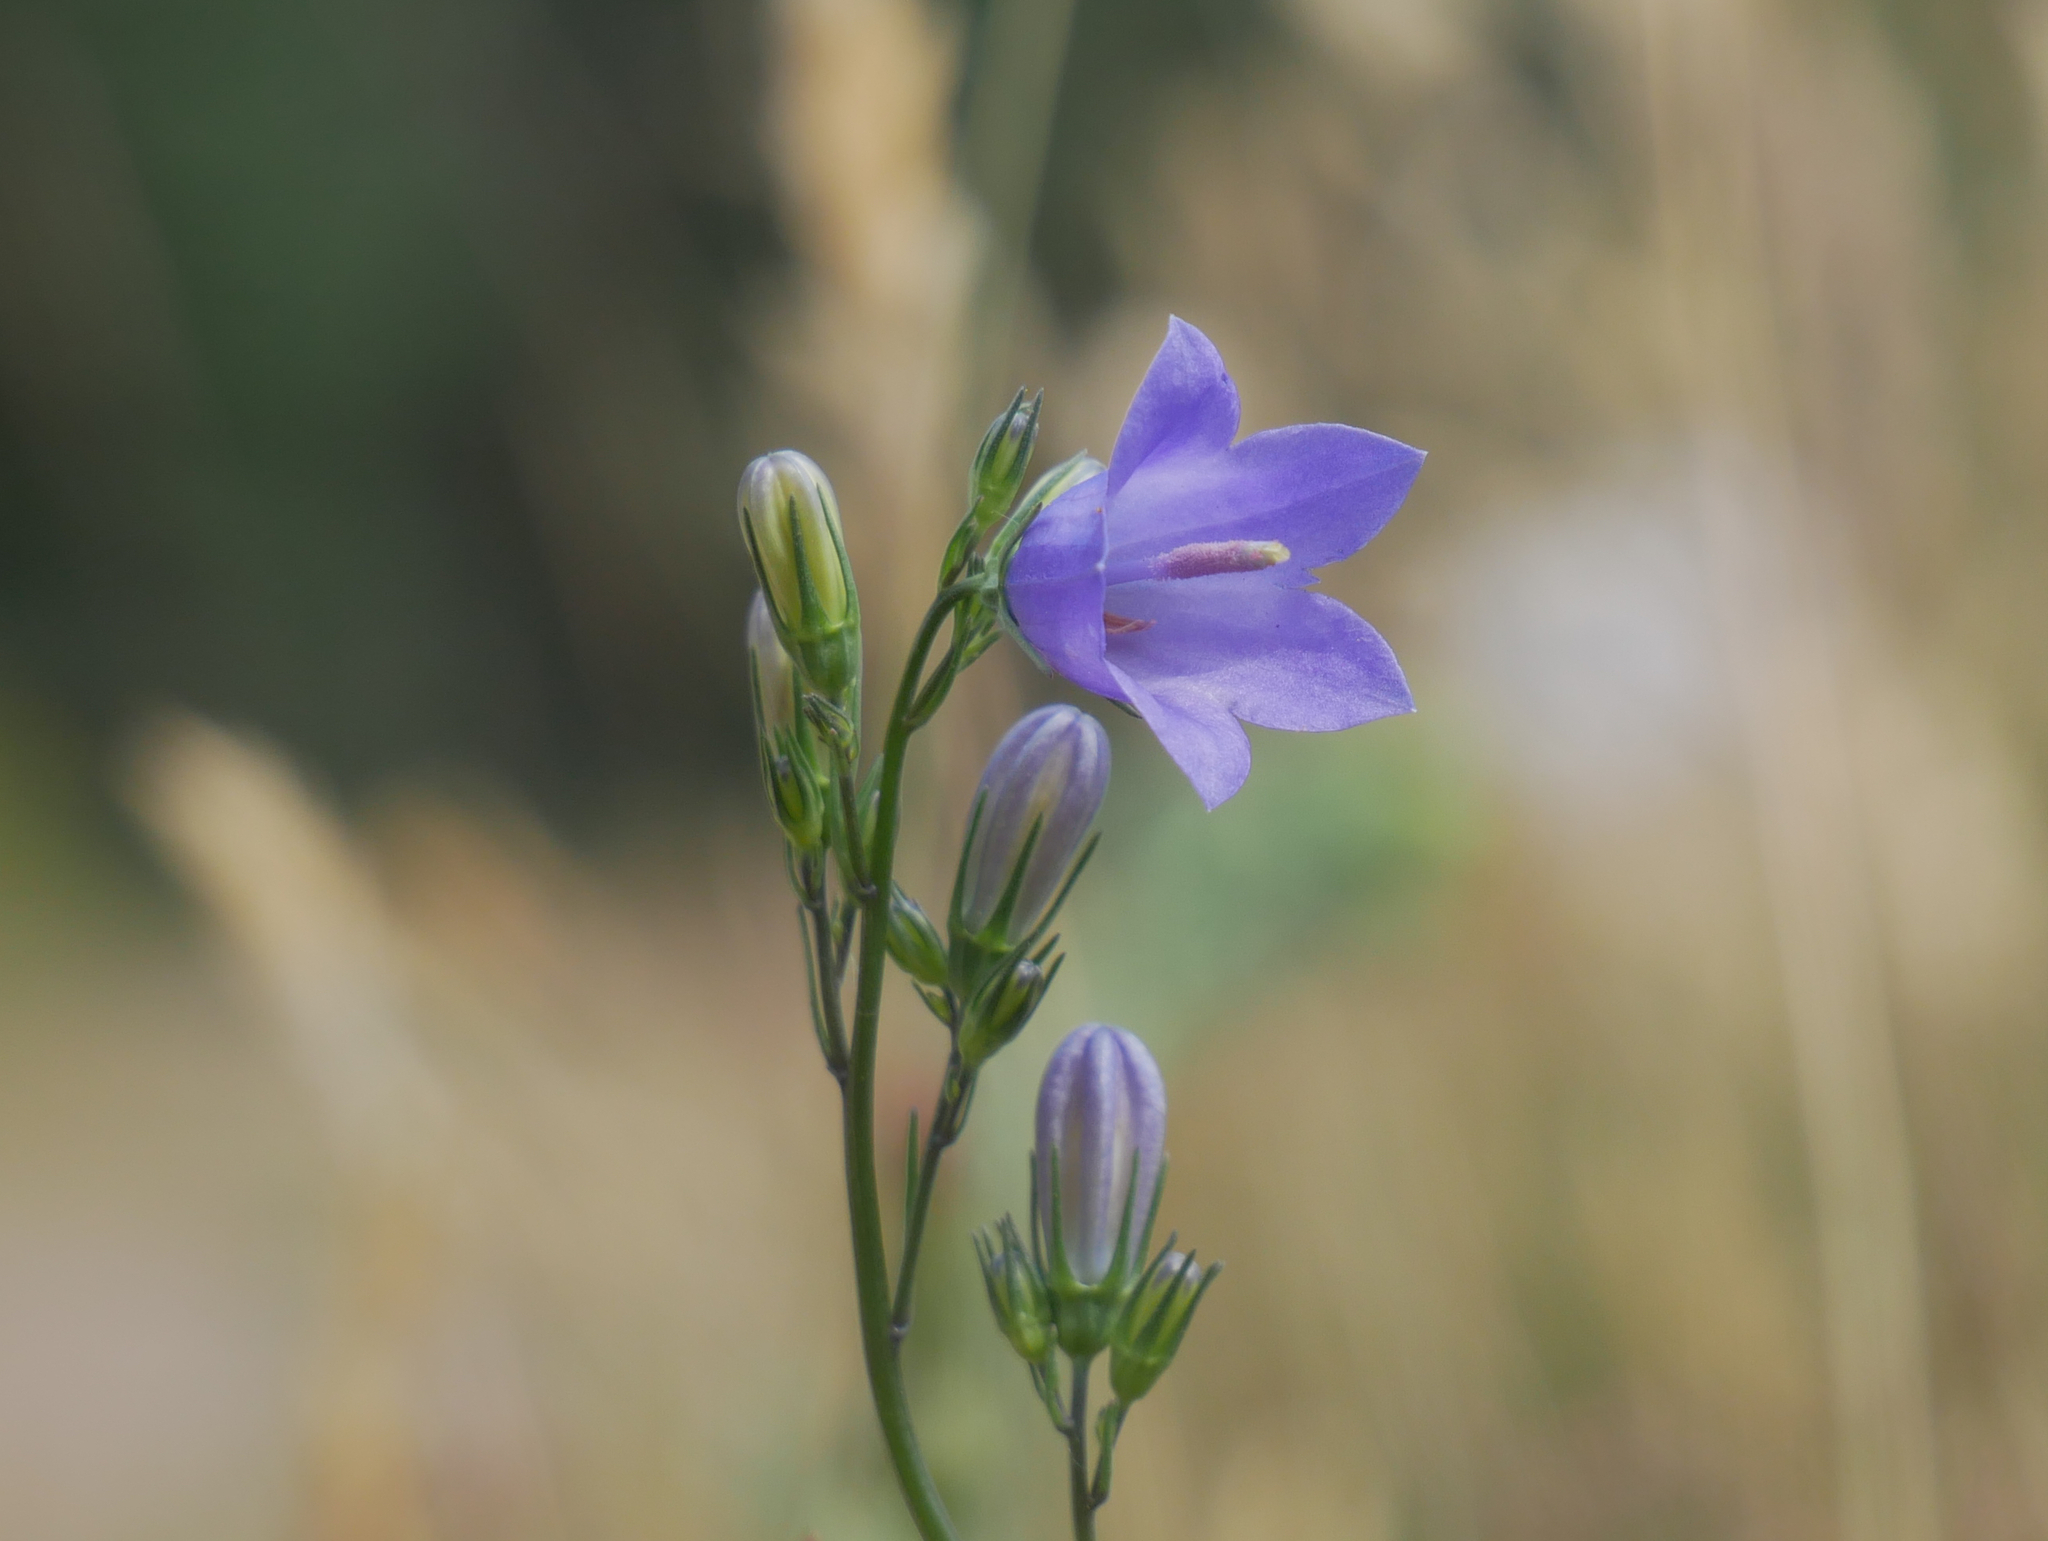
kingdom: Plantae
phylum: Tracheophyta
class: Magnoliopsida
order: Asterales
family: Campanulaceae
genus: Campanula
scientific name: Campanula rotundifolia
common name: Harebell
